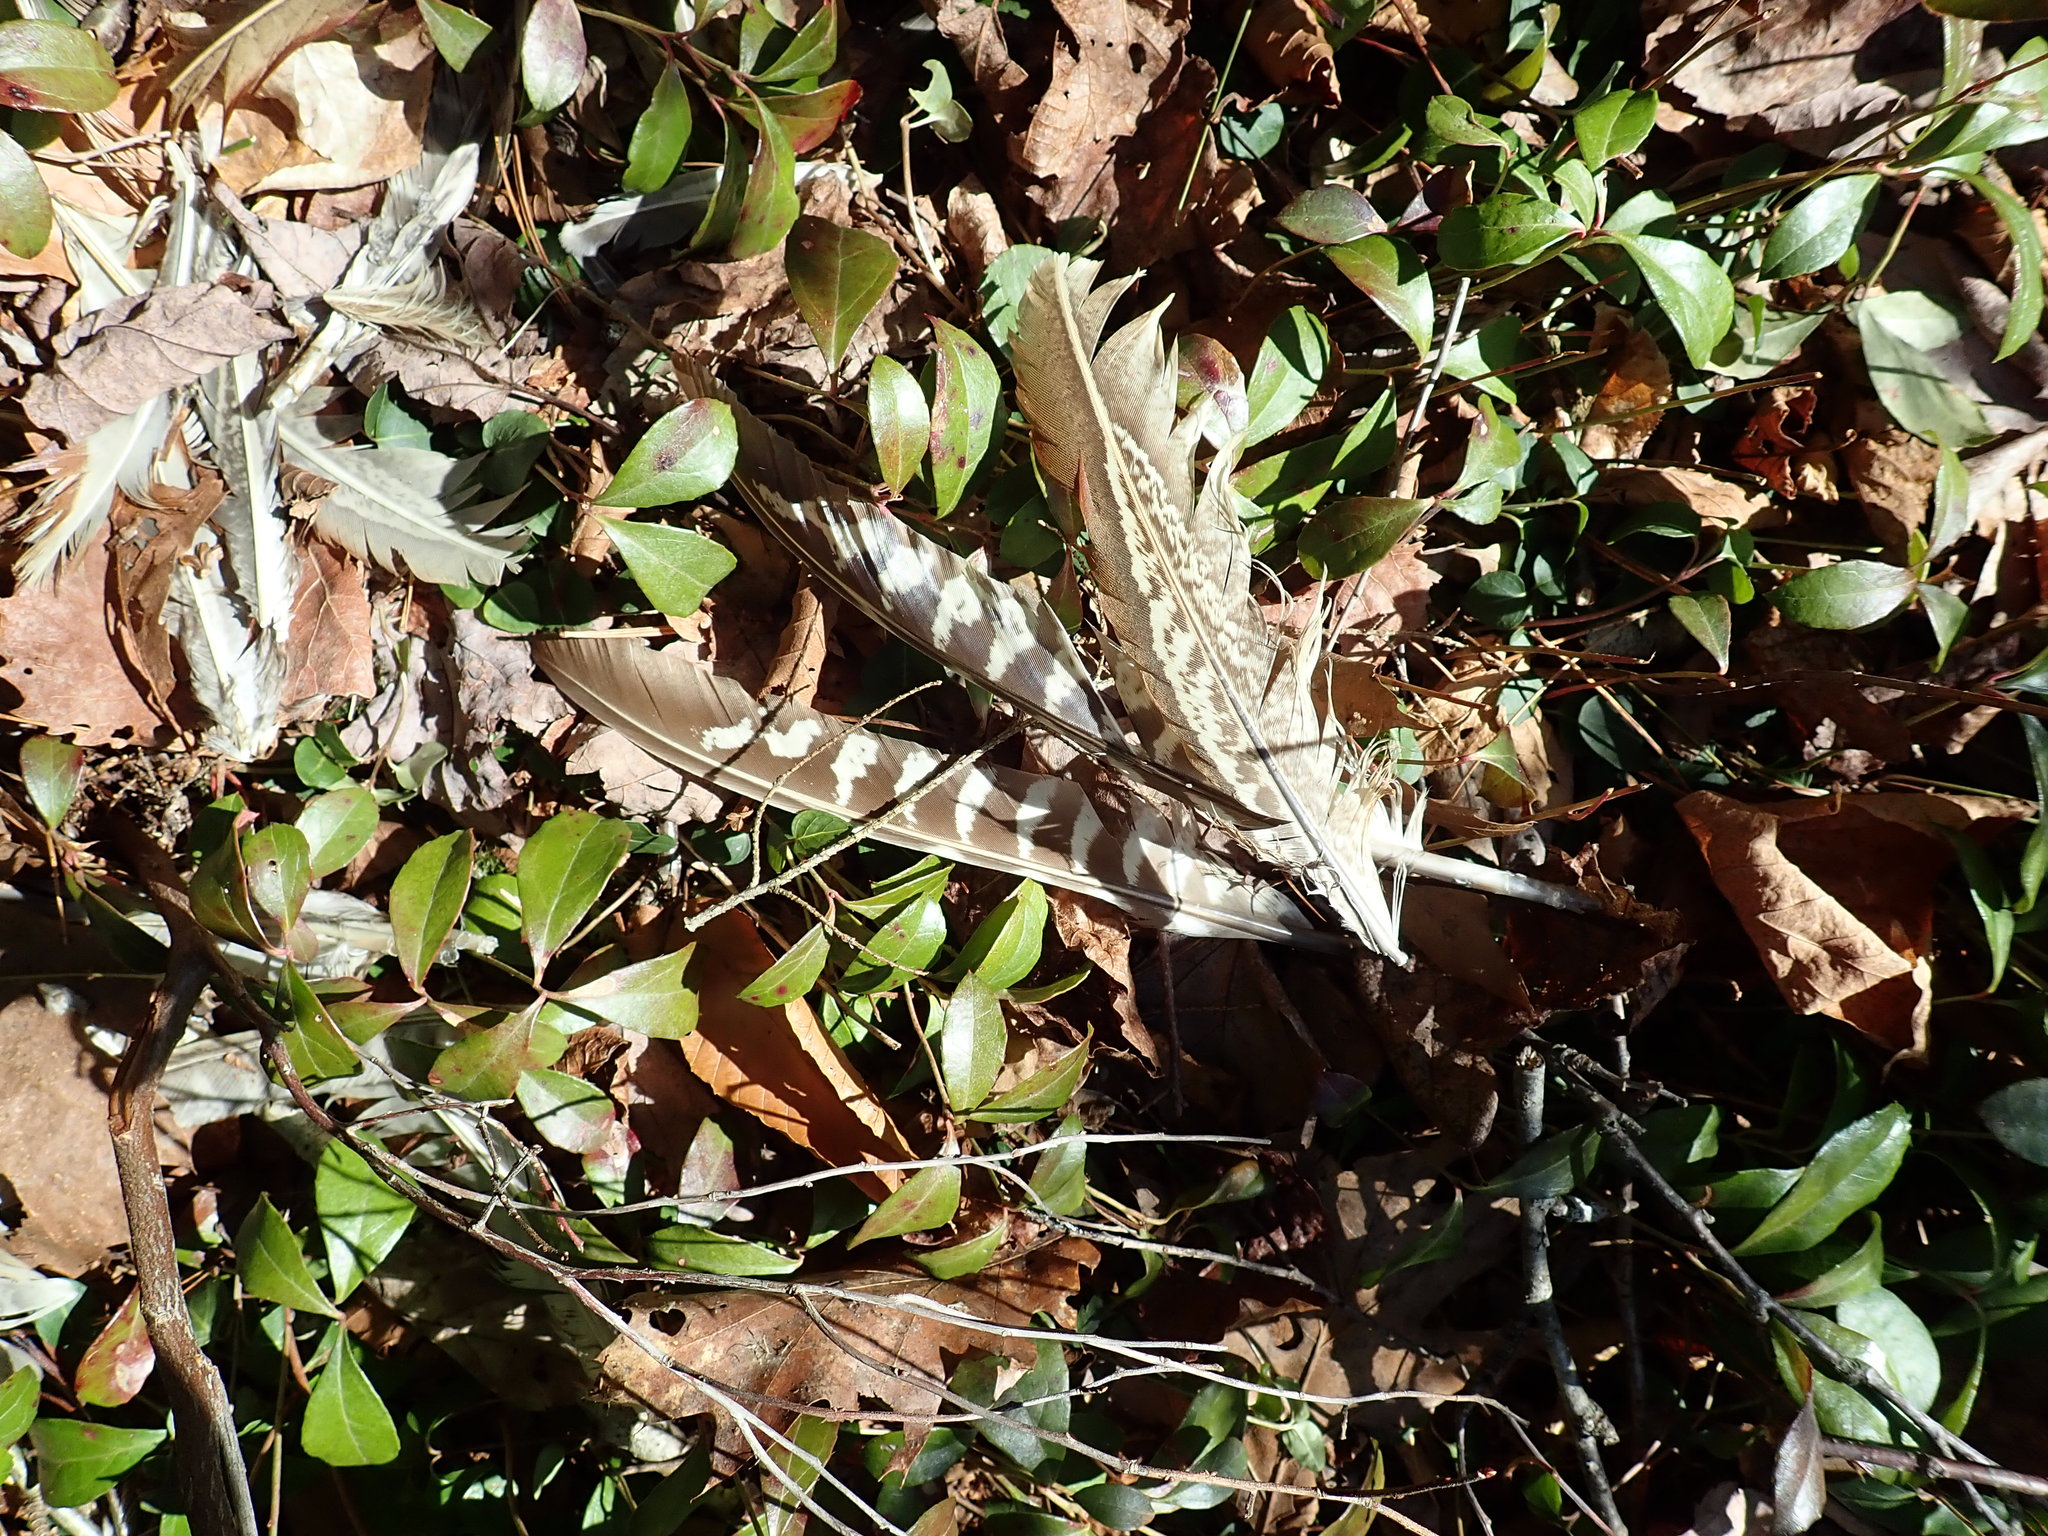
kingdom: Animalia
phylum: Chordata
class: Aves
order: Galliformes
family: Phasianidae
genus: Phasianus
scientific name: Phasianus colchicus
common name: Common pheasant
